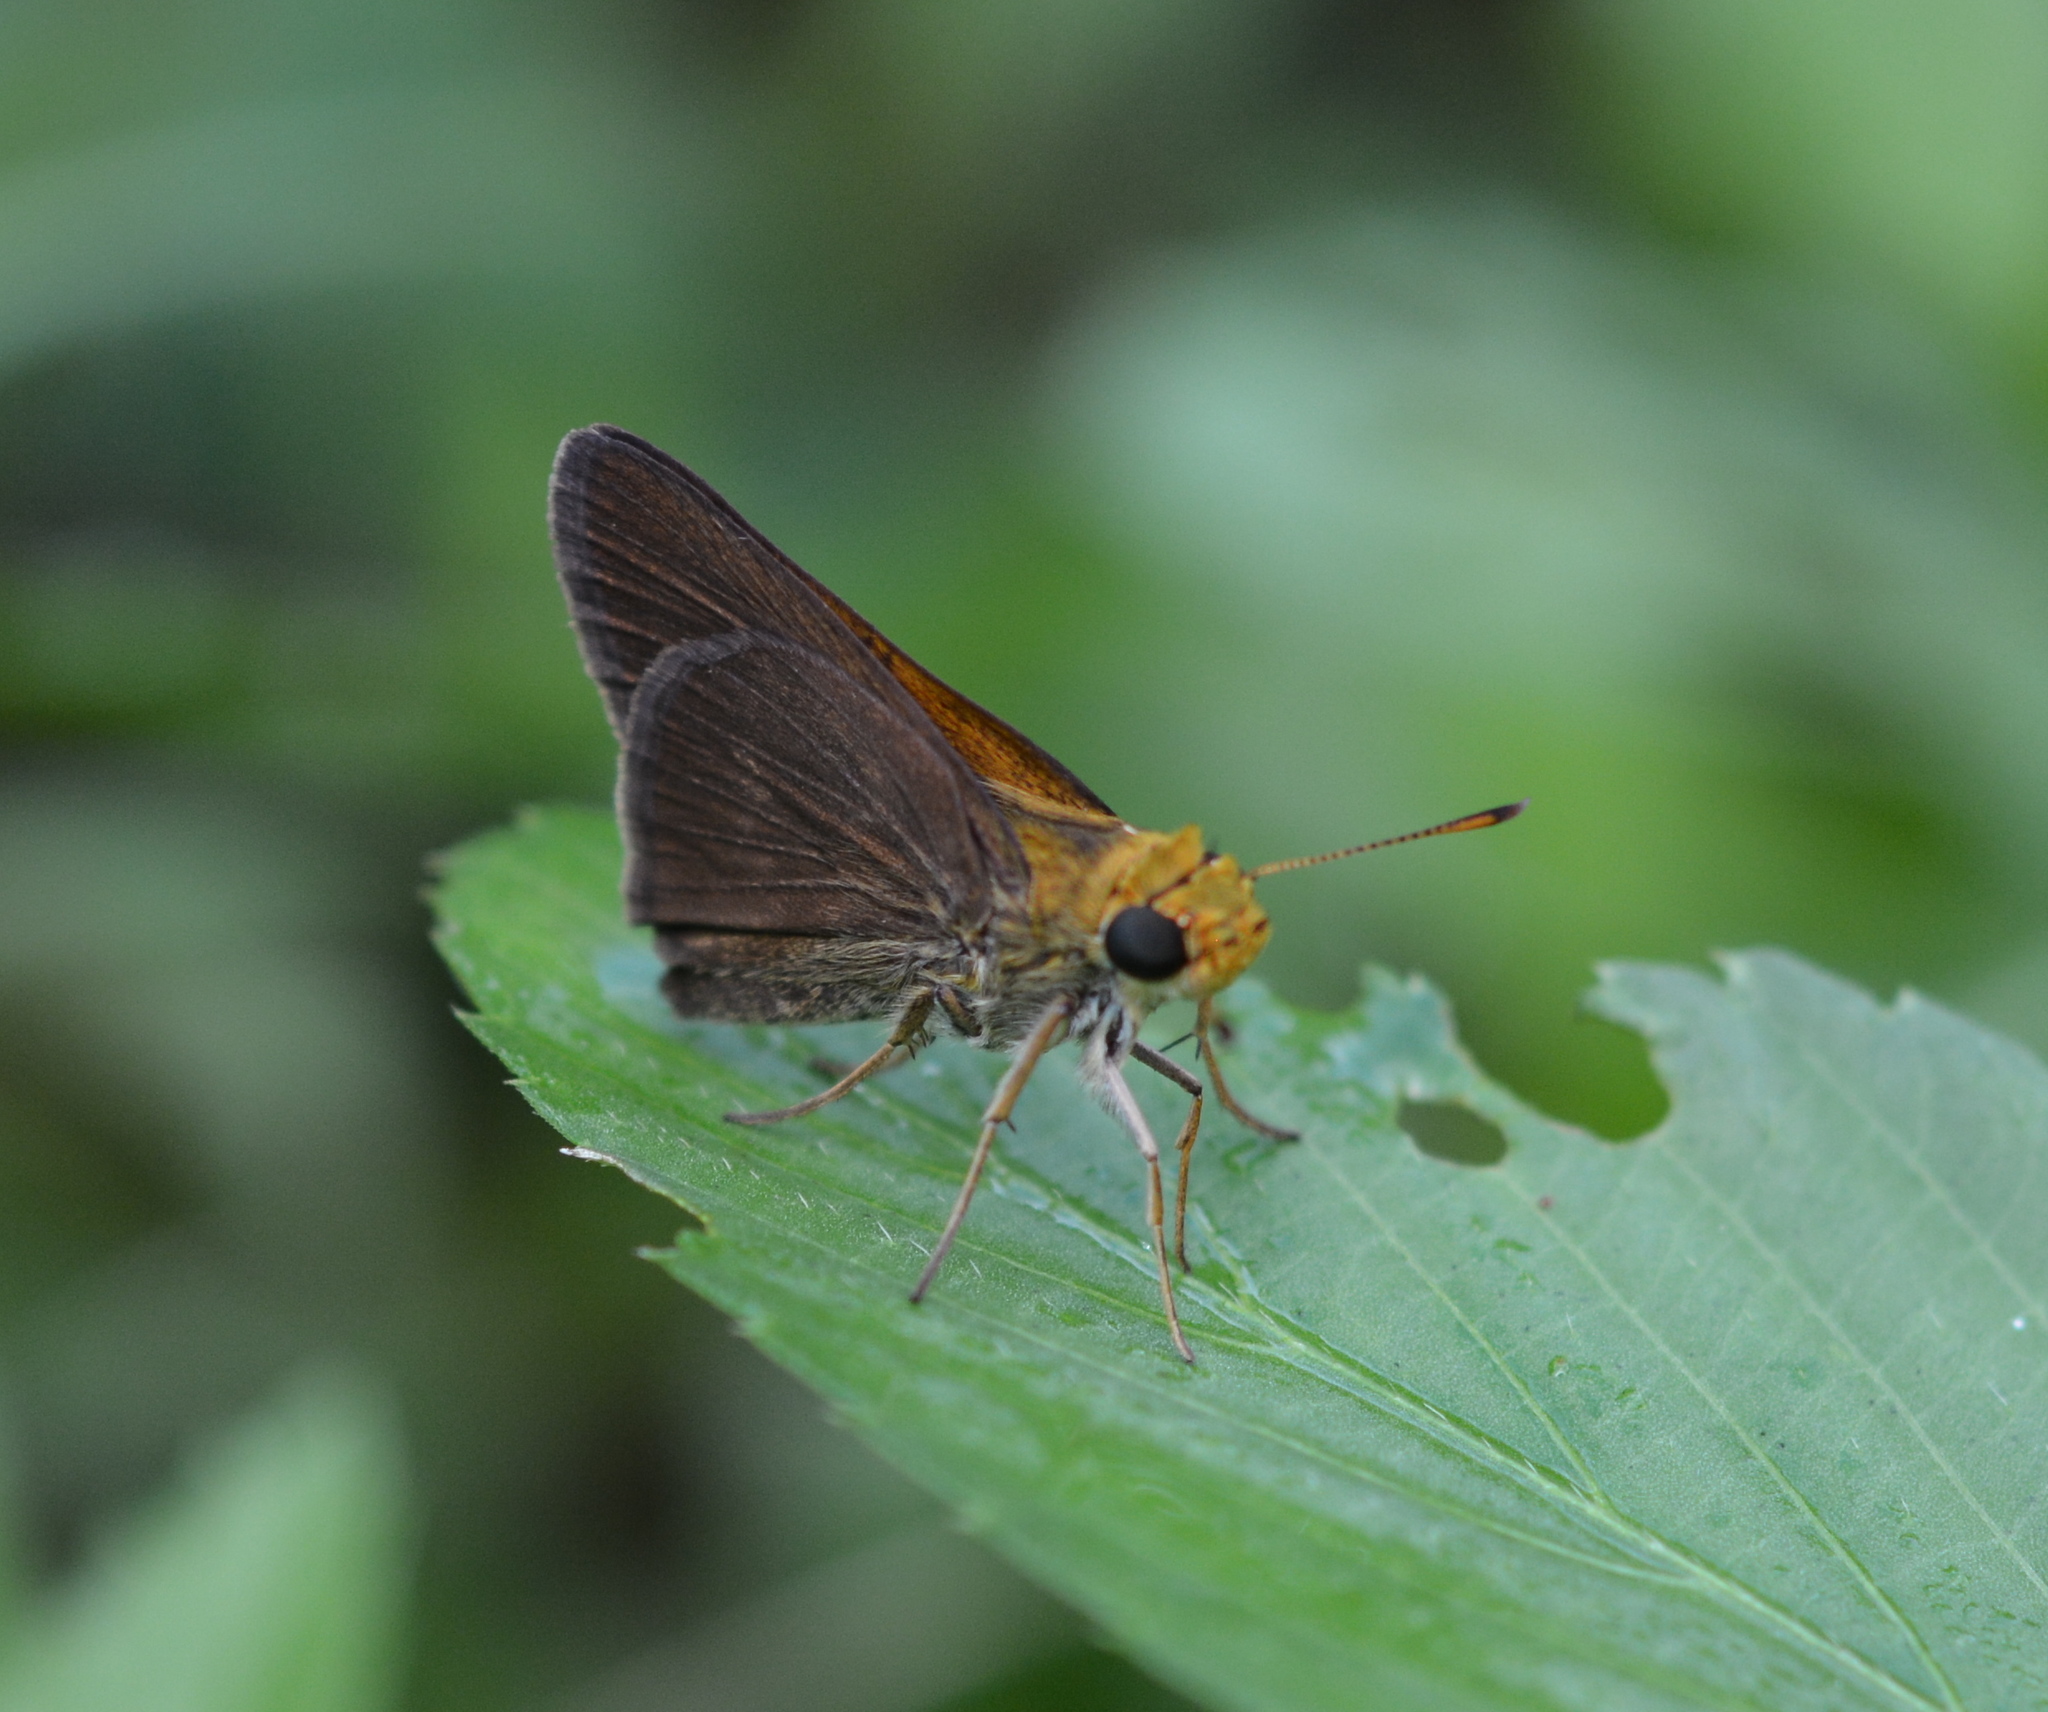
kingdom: Animalia
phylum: Arthropoda
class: Insecta
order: Lepidoptera
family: Hesperiidae
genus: Euphyes
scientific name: Euphyes vestris
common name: Dun skipper
